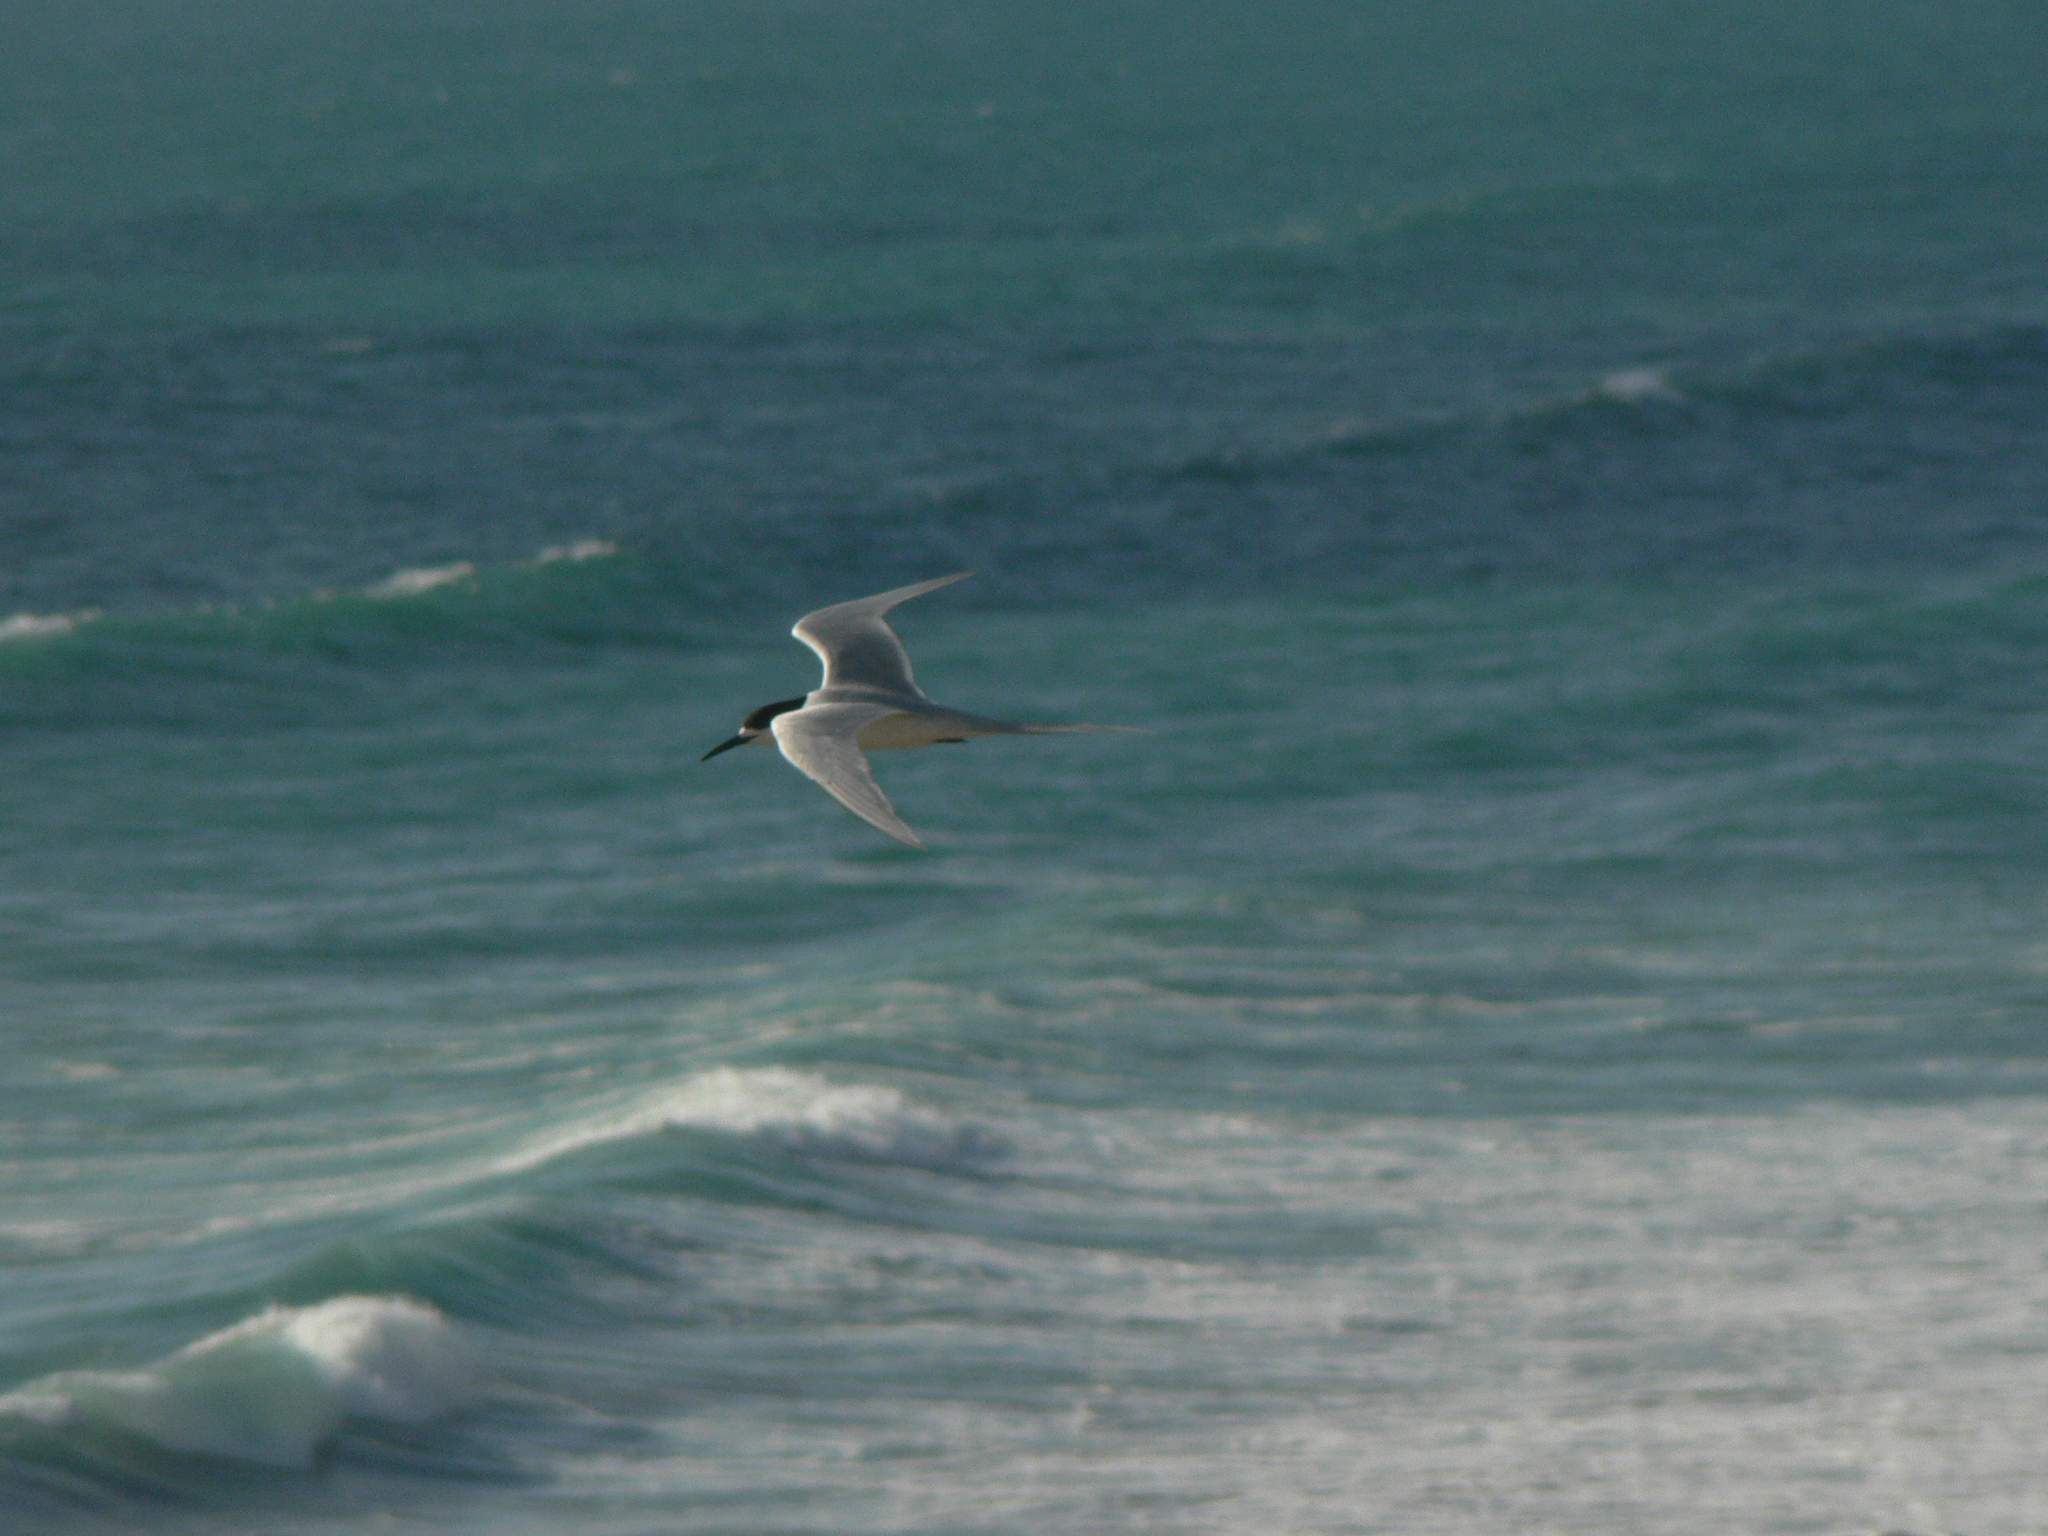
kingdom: Animalia
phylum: Chordata
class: Aves
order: Charadriiformes
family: Laridae
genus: Sterna
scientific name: Sterna striata
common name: White-fronted tern
